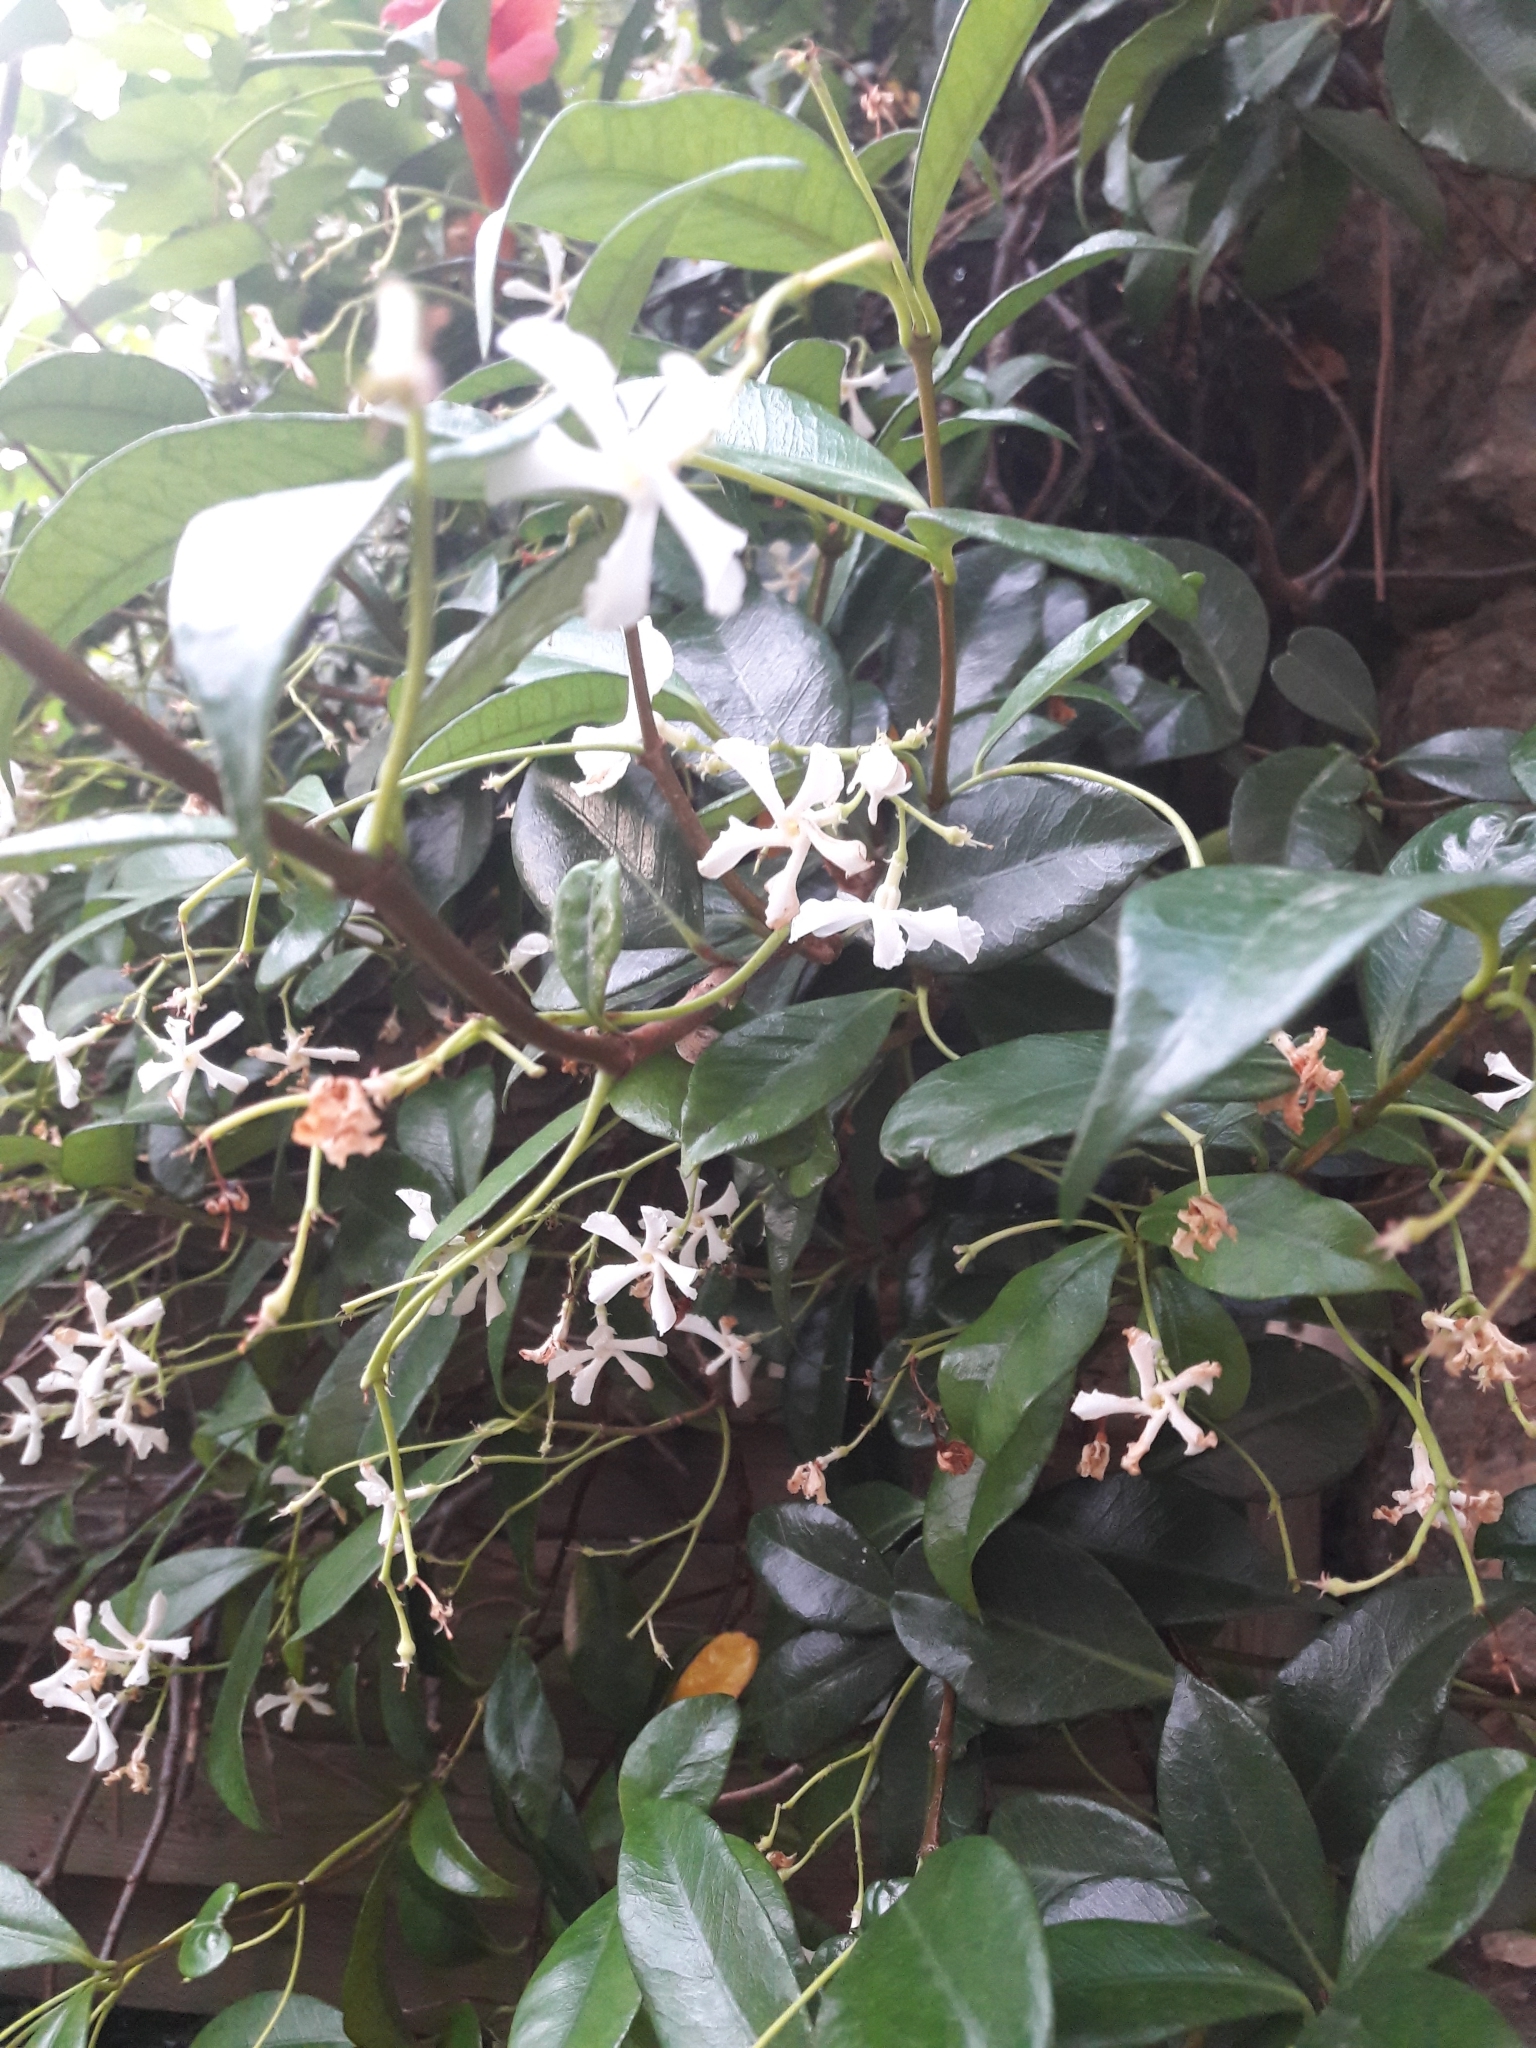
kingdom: Plantae
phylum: Tracheophyta
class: Magnoliopsida
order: Gentianales
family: Apocynaceae
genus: Trachelospermum
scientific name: Trachelospermum jasminoides
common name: Confederate jasmine
